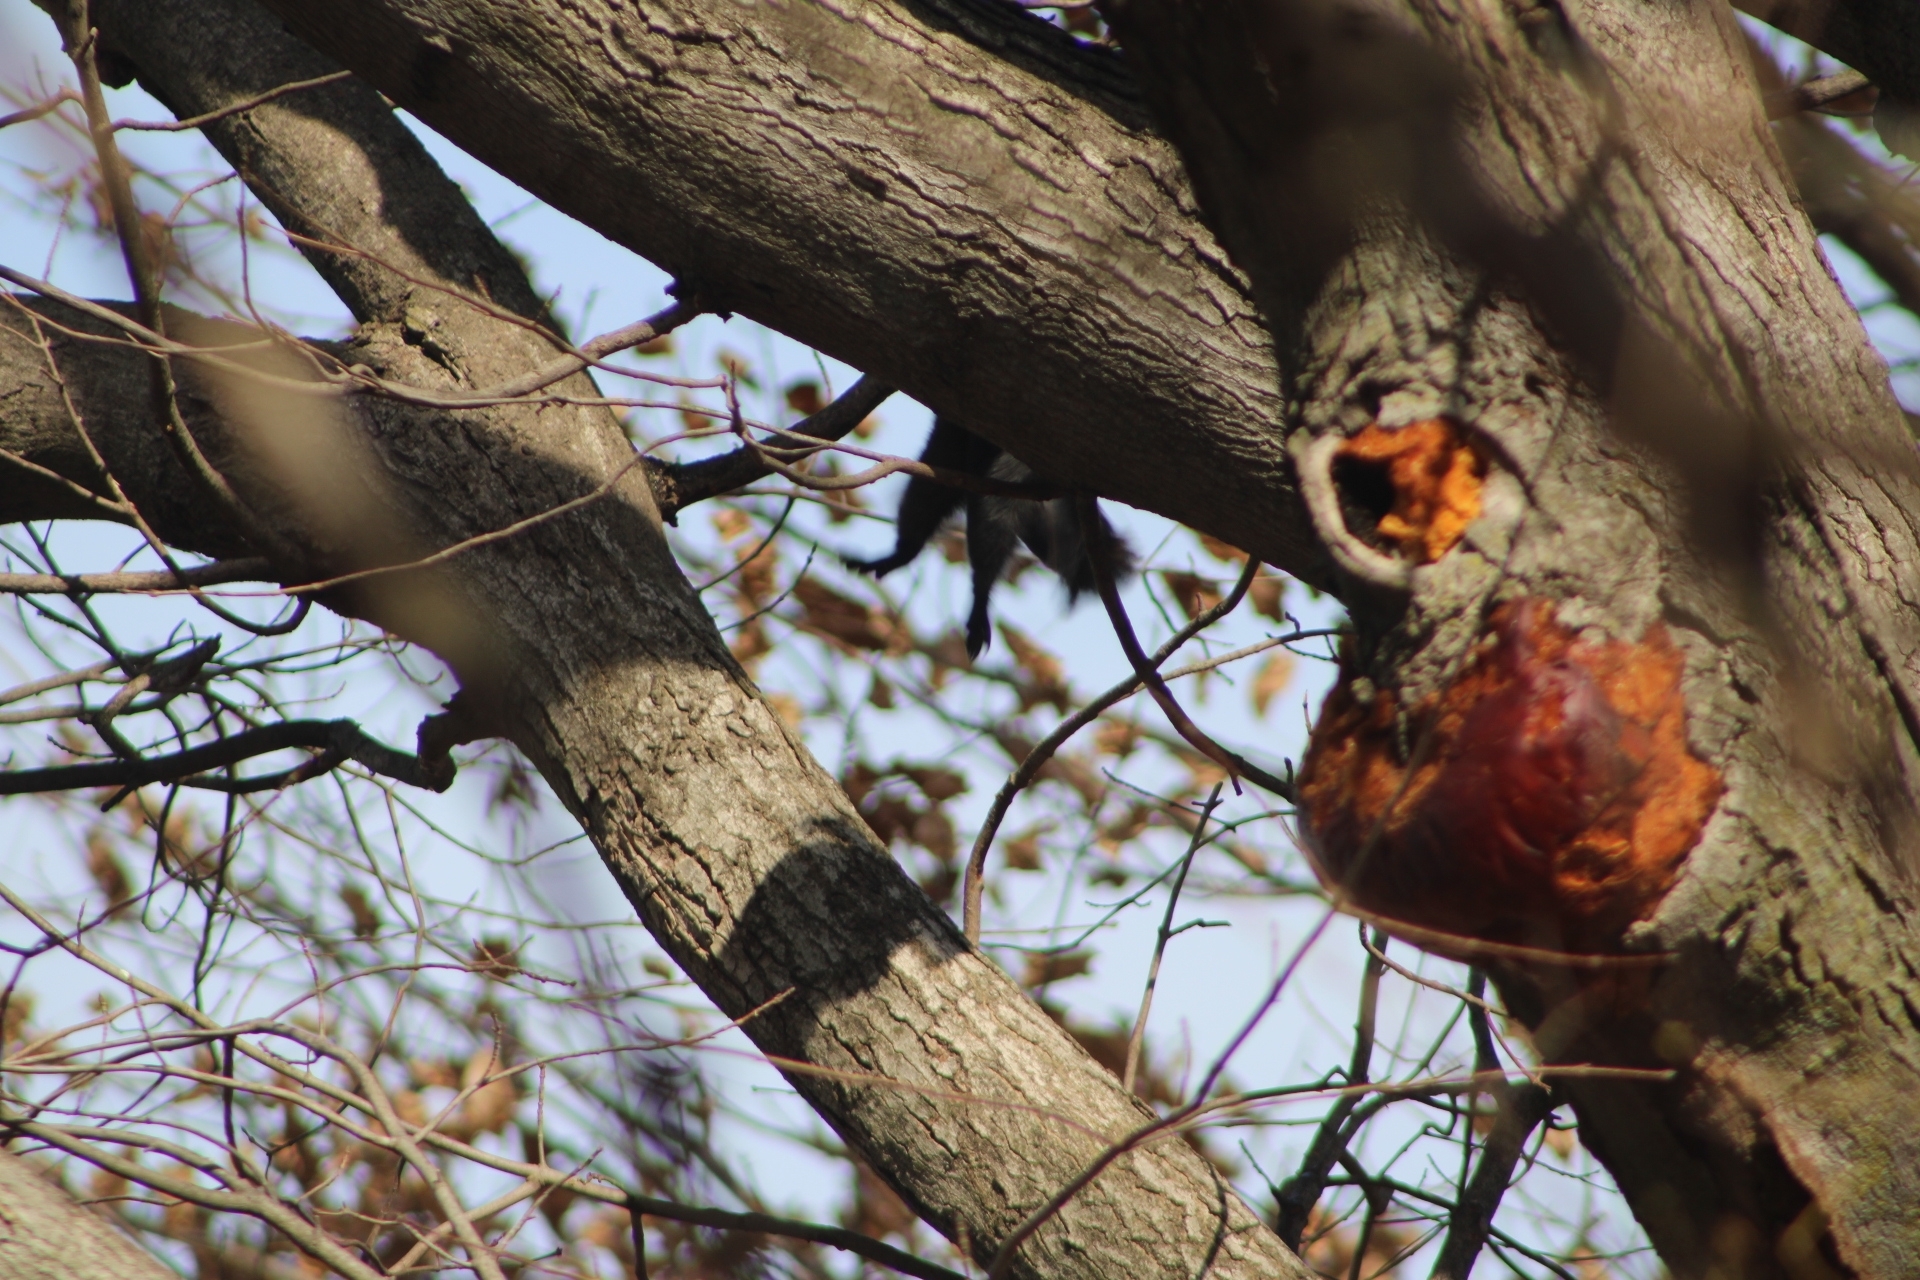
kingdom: Animalia
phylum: Chordata
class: Mammalia
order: Rodentia
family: Sciuridae
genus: Sciurus
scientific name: Sciurus carolinensis
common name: Eastern gray squirrel
